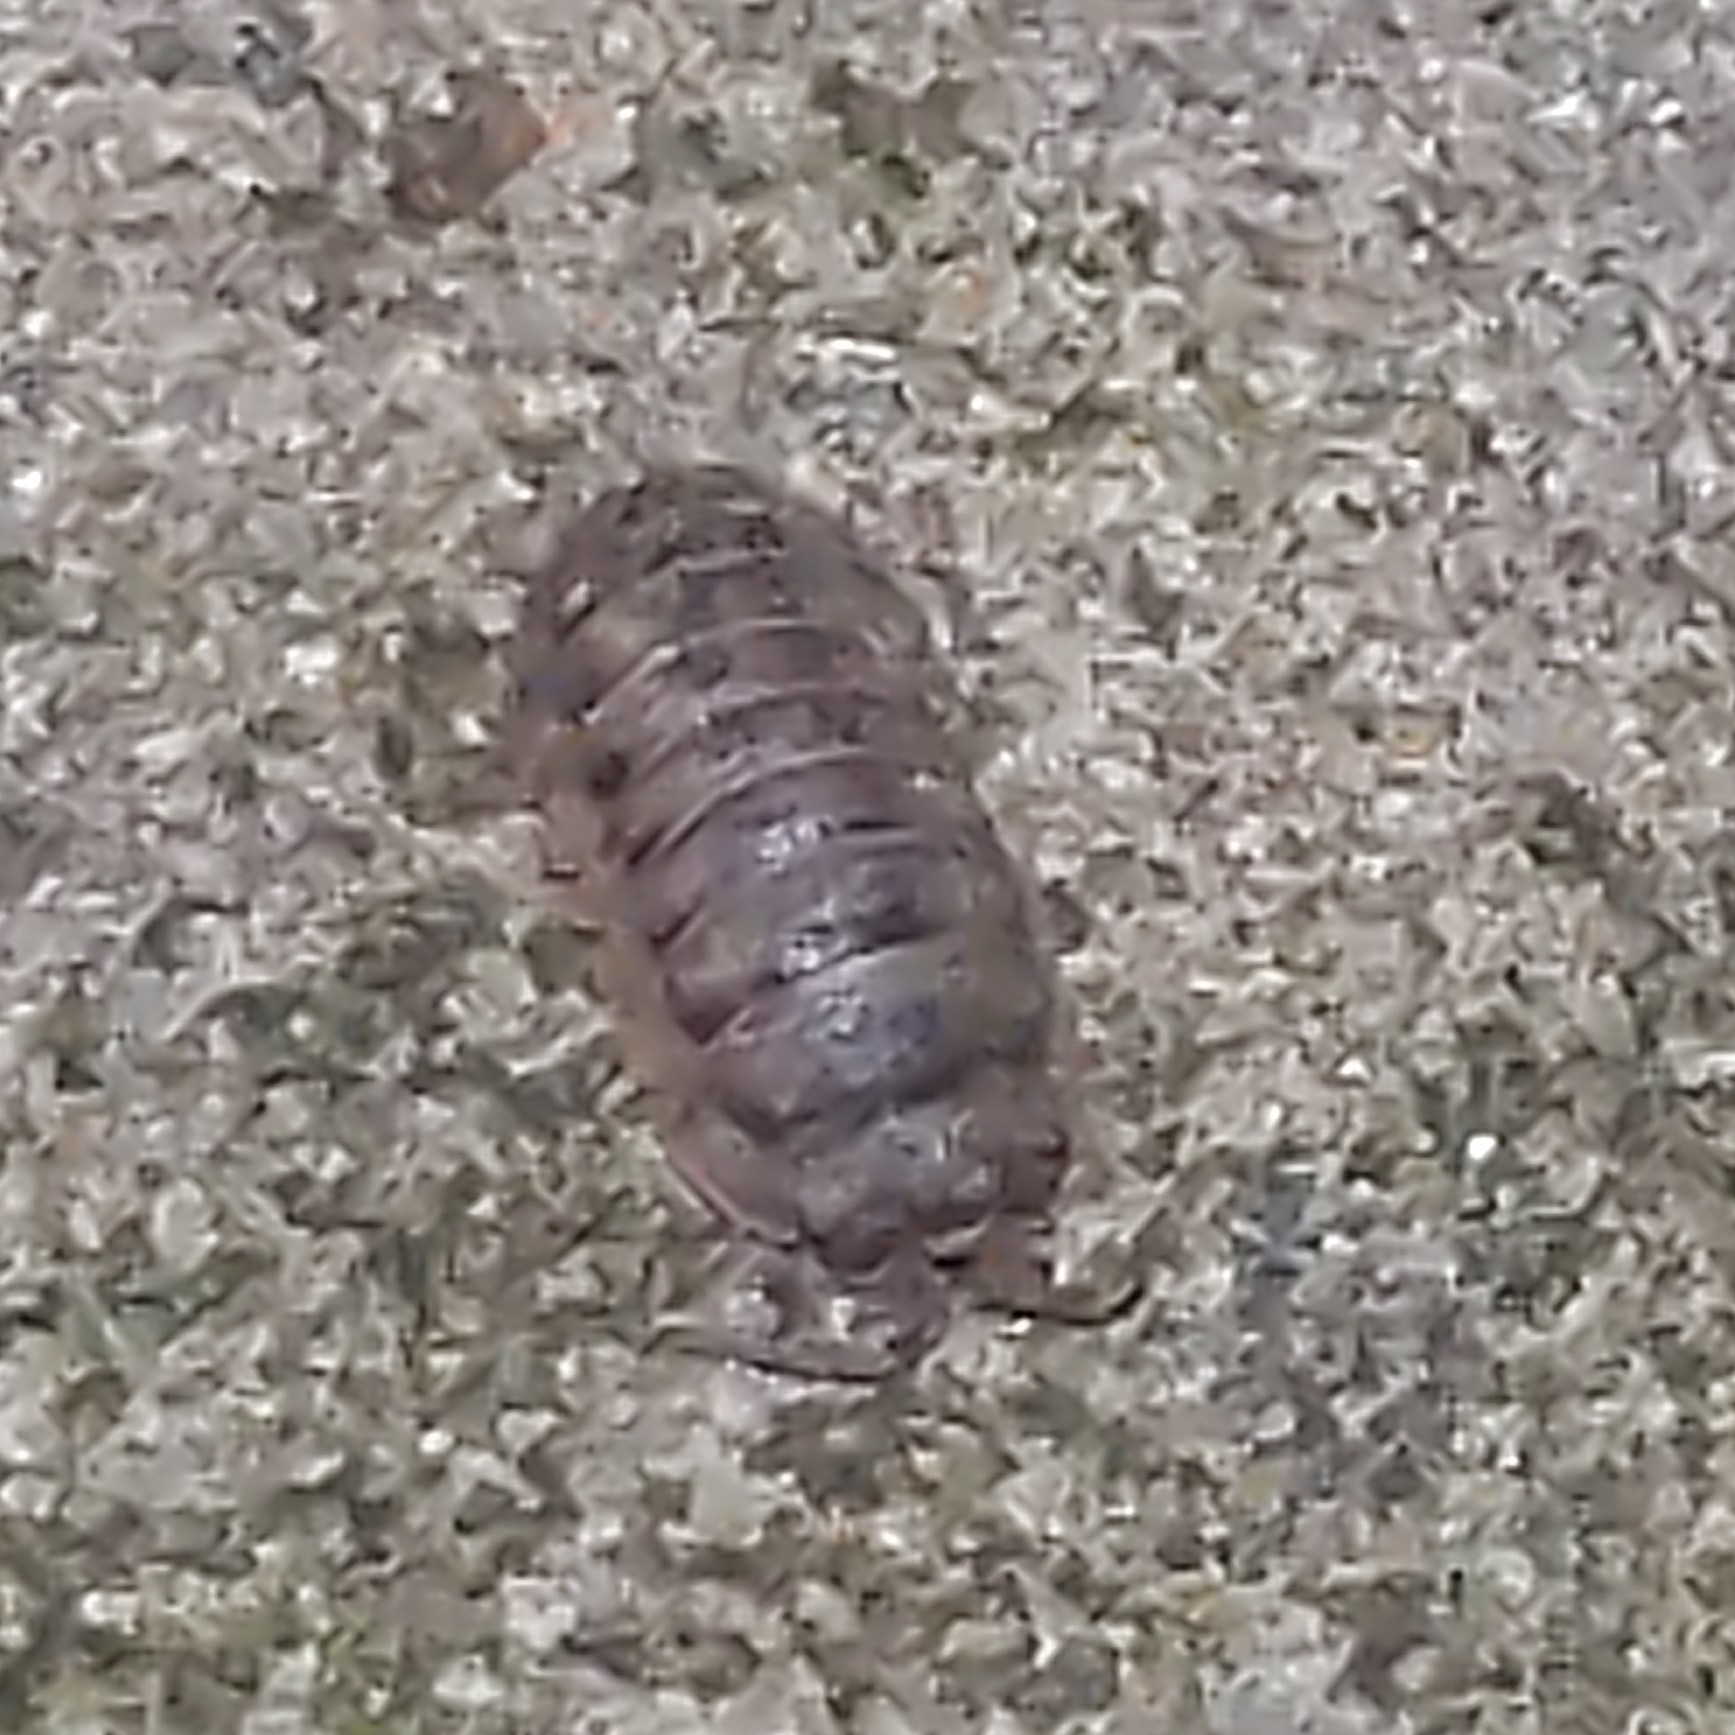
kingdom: Animalia
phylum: Arthropoda
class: Malacostraca
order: Isopoda
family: Armadillidiidae
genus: Armadillidium
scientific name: Armadillidium nasatum
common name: Isopod
